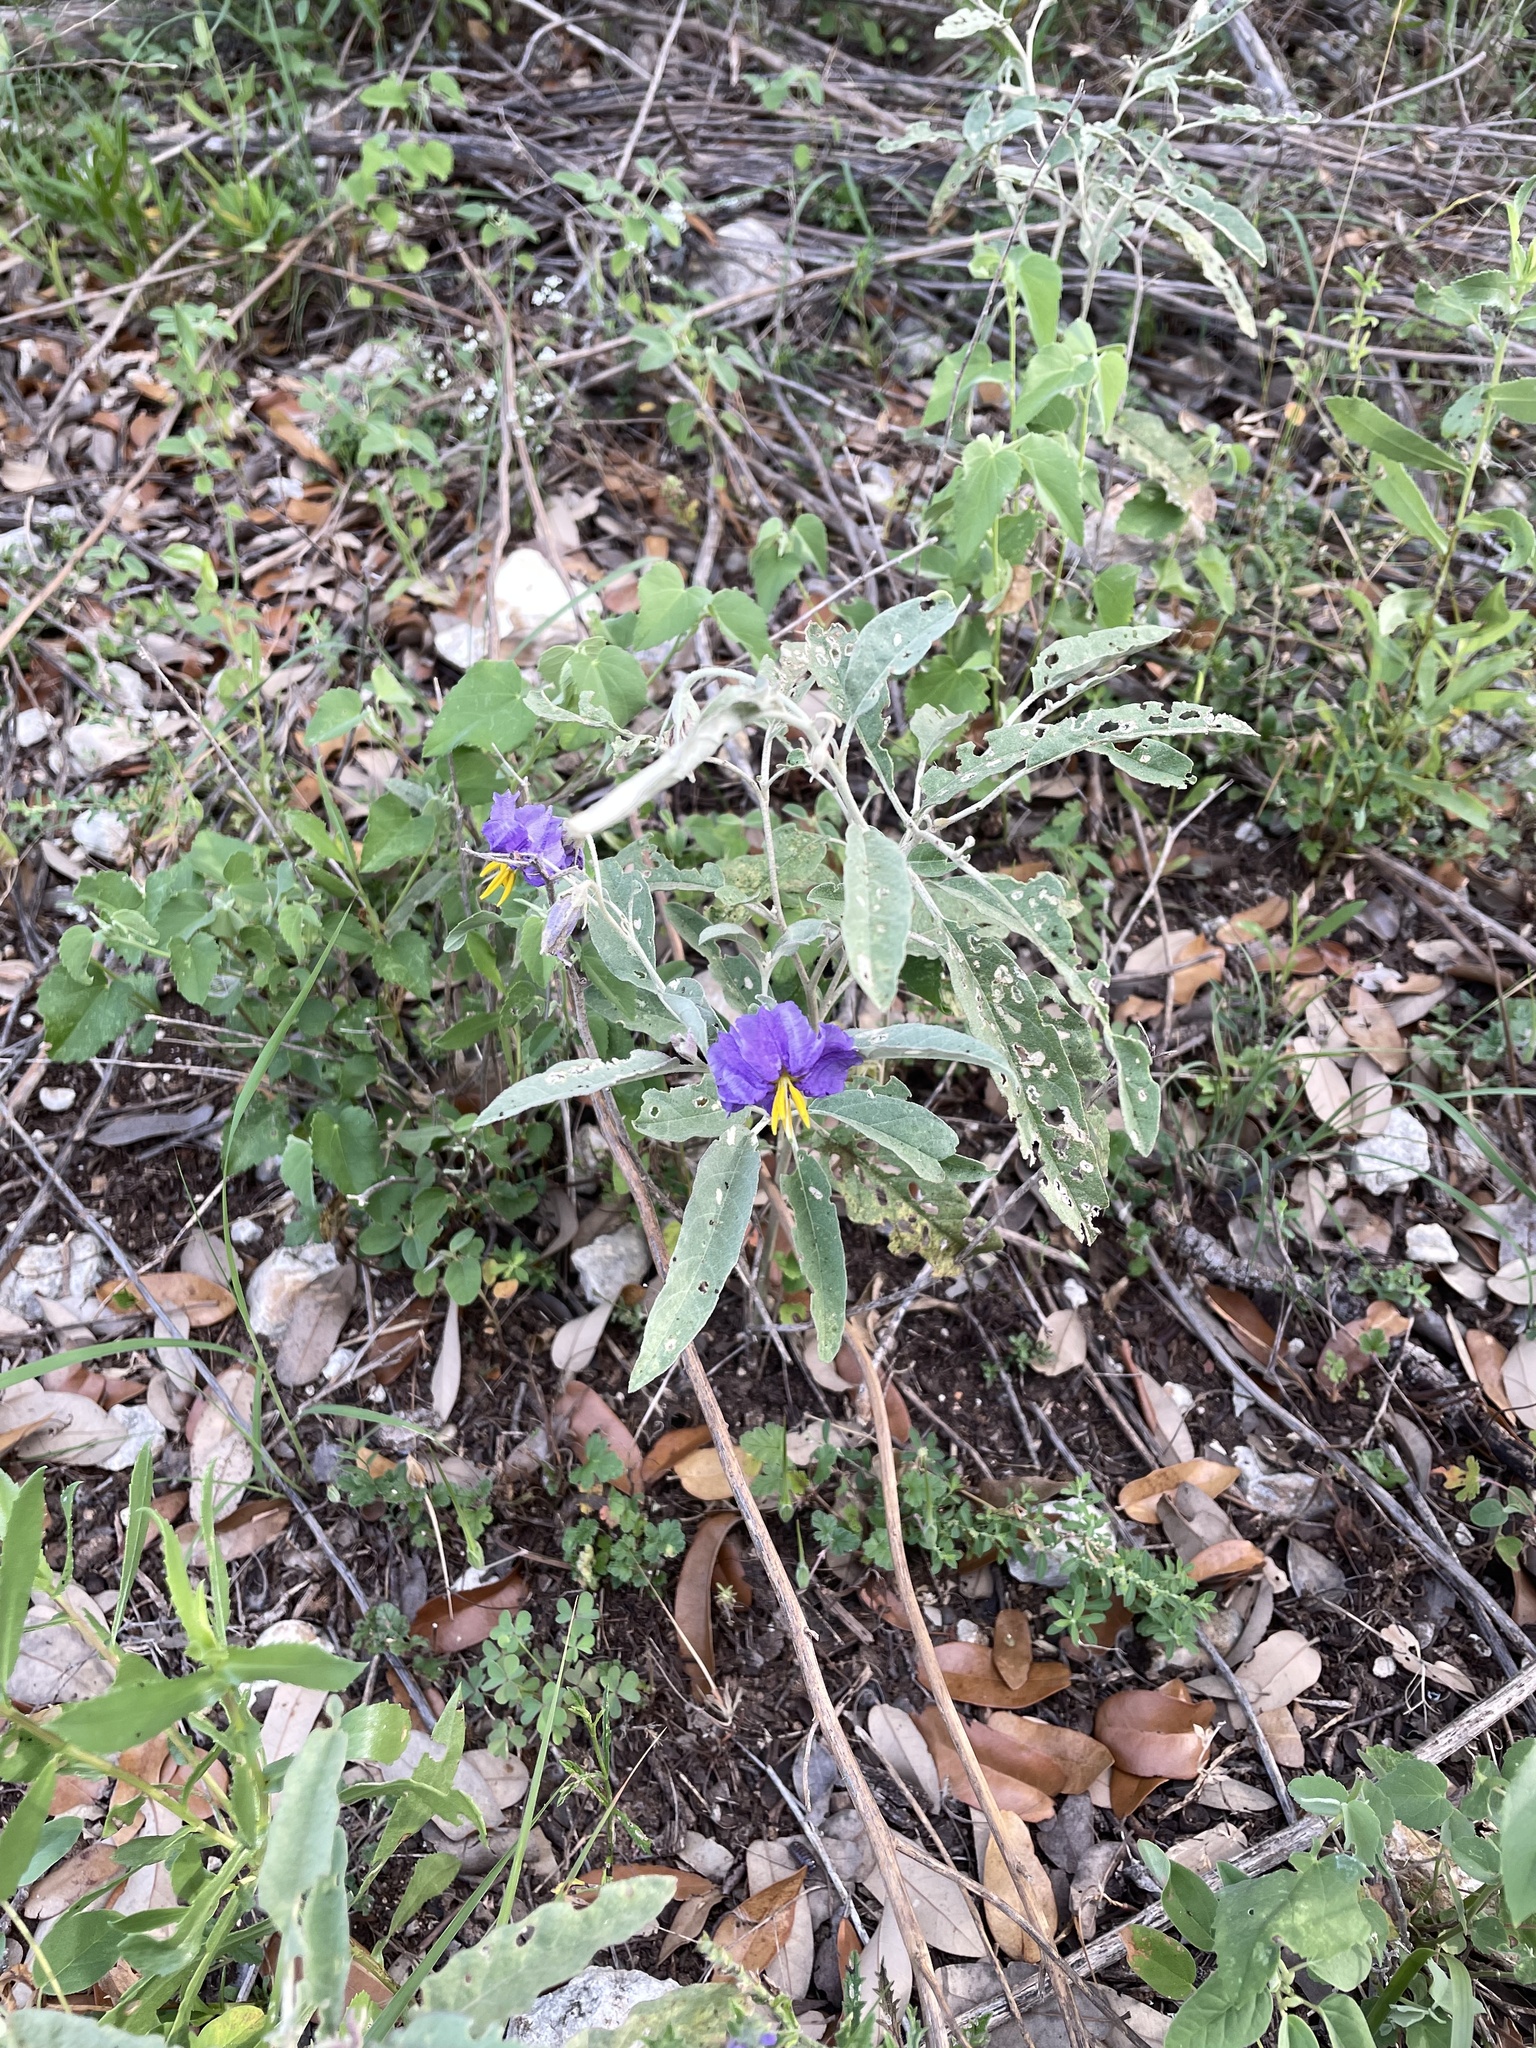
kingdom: Plantae
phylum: Tracheophyta
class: Magnoliopsida
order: Solanales
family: Solanaceae
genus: Solanum
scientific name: Solanum elaeagnifolium
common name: Silverleaf nightshade
